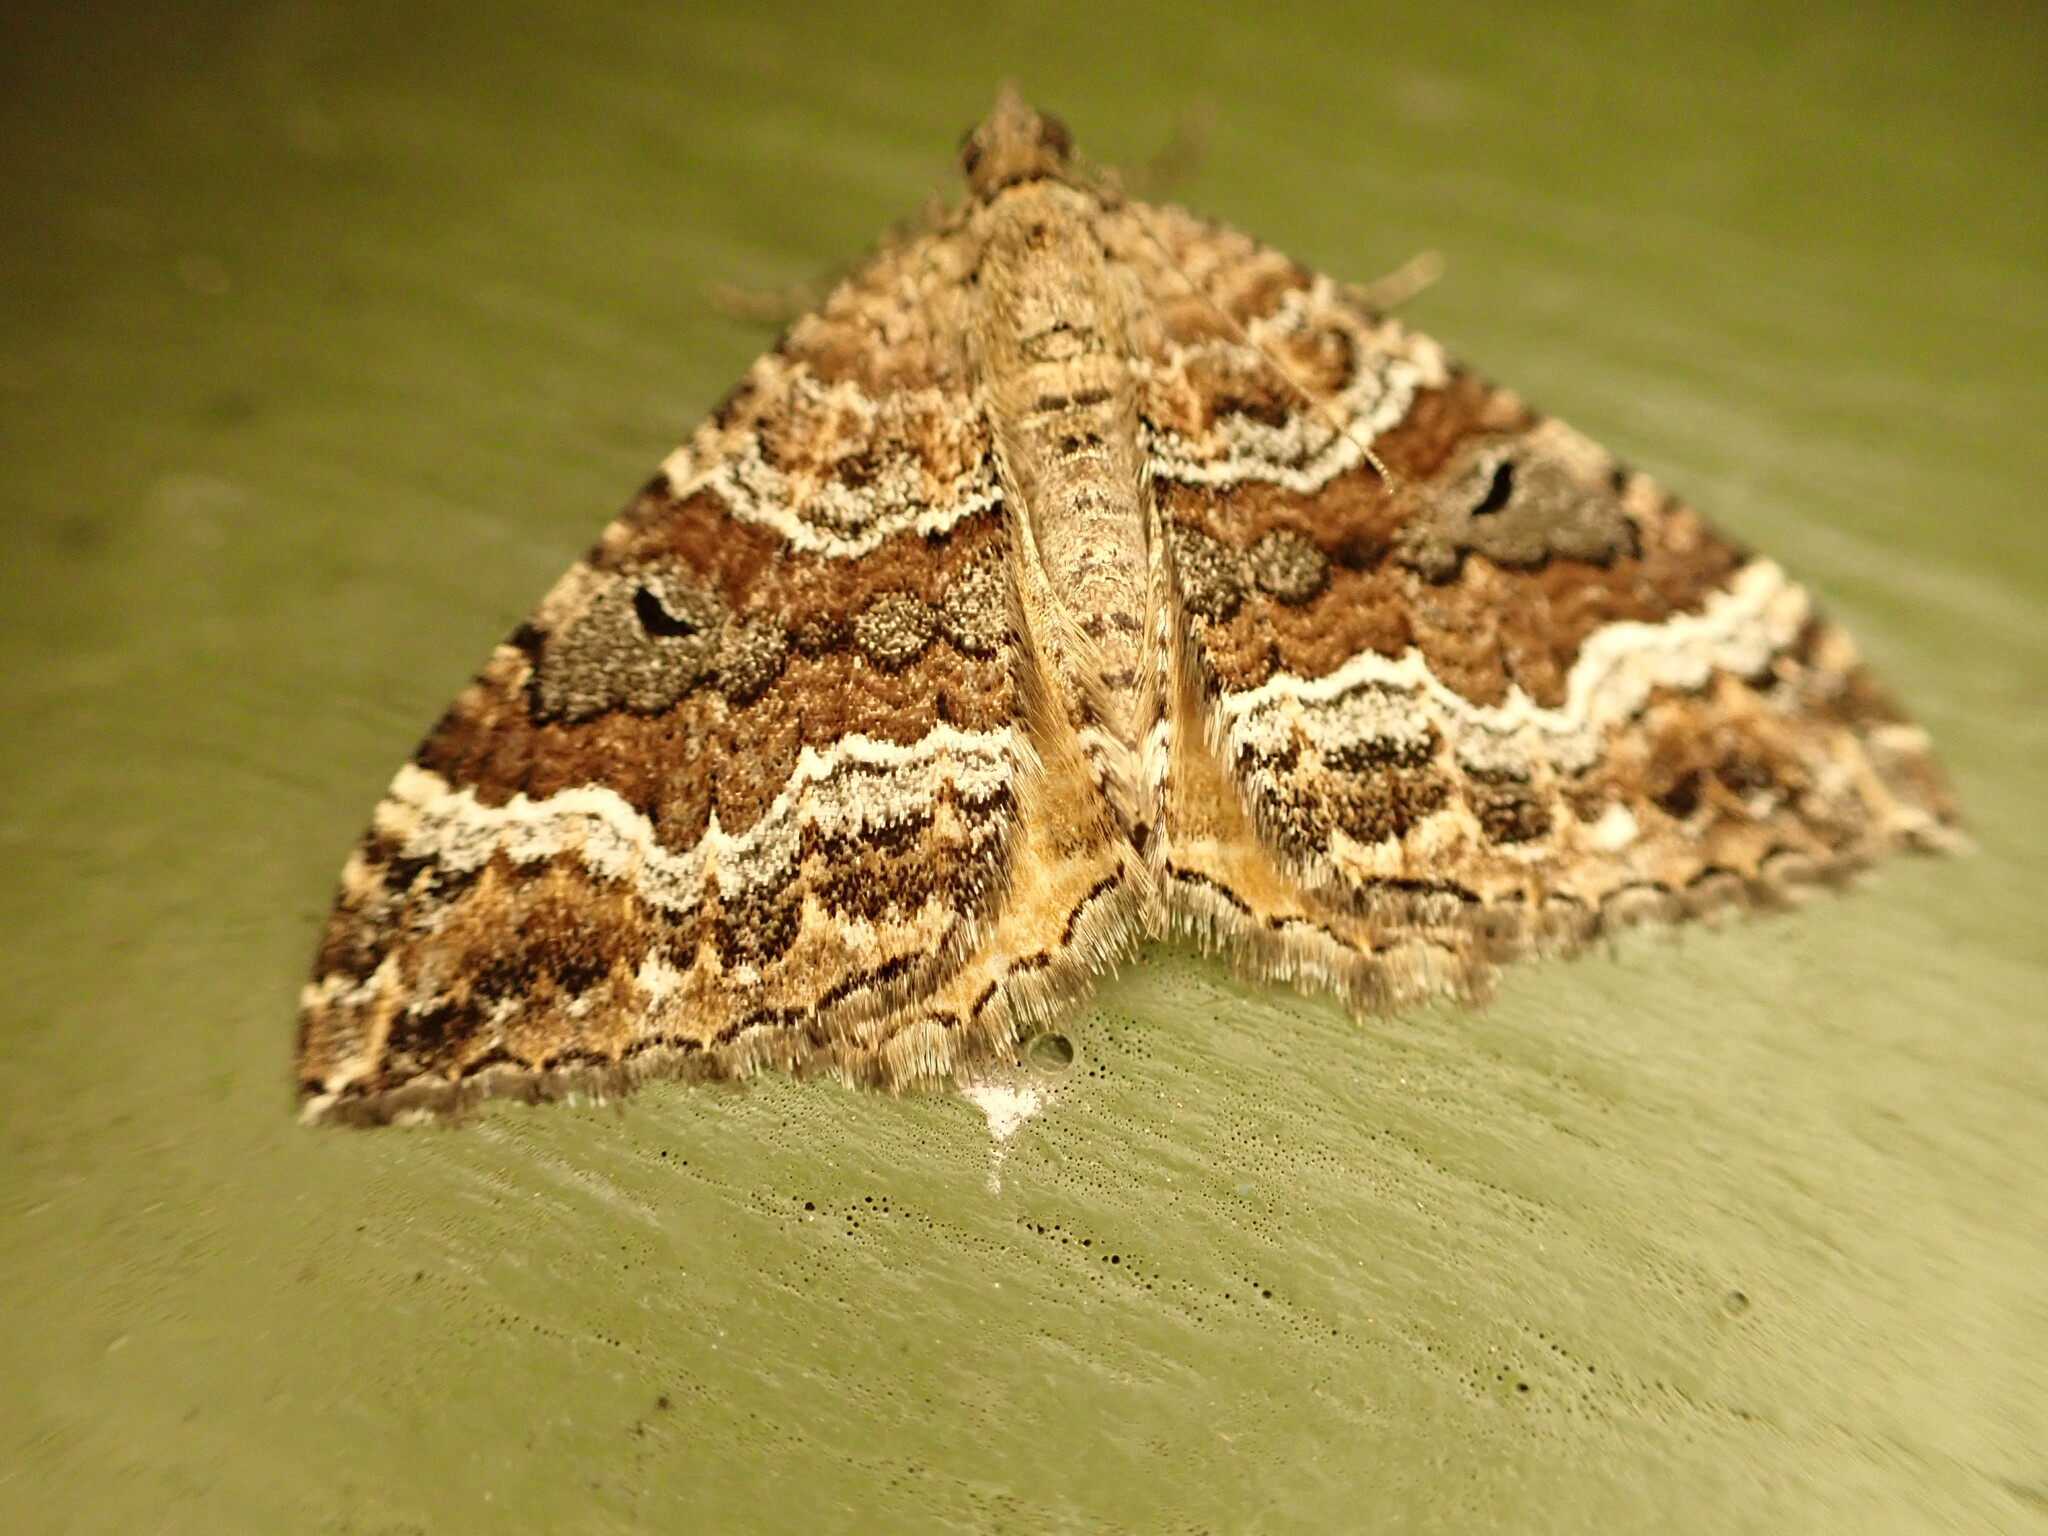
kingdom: Animalia
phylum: Arthropoda
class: Insecta
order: Lepidoptera
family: Geometridae
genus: Hydriomena
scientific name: Hydriomena deltoidata
